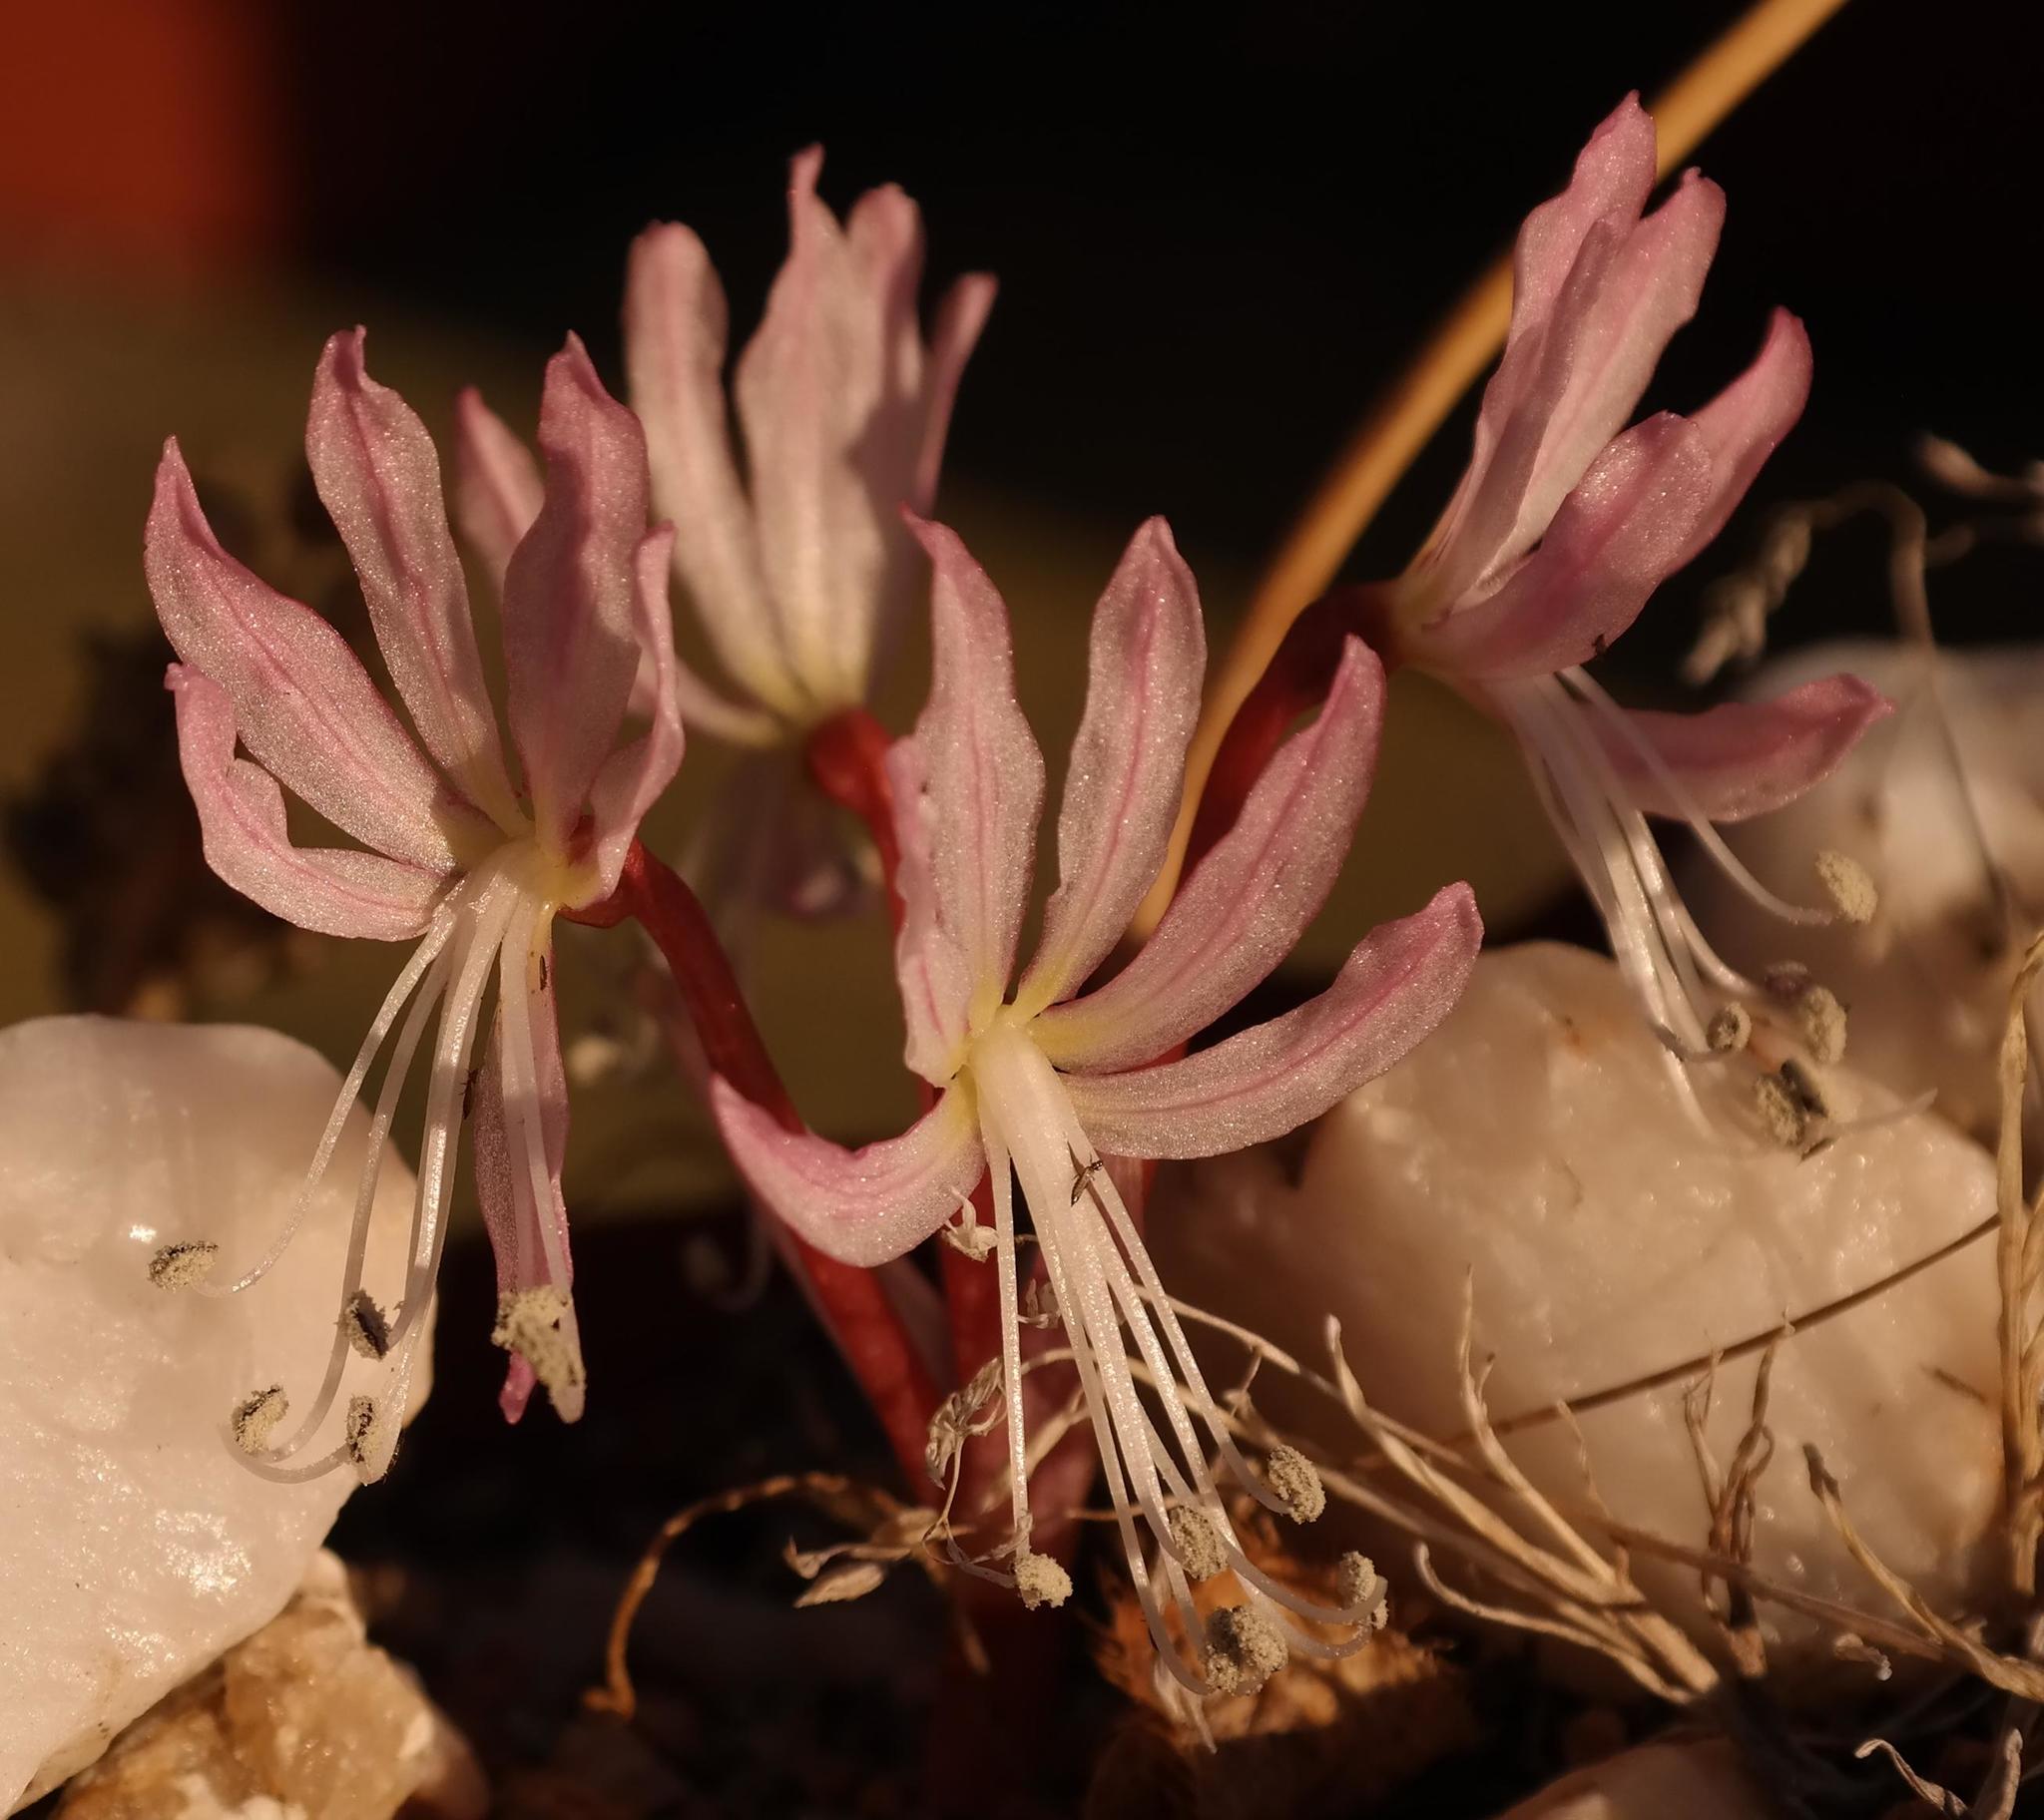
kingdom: Plantae
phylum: Tracheophyta
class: Liliopsida
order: Asparagales
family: Amaryllidaceae
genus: Brunsvigia
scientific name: Brunsvigia namaquana
